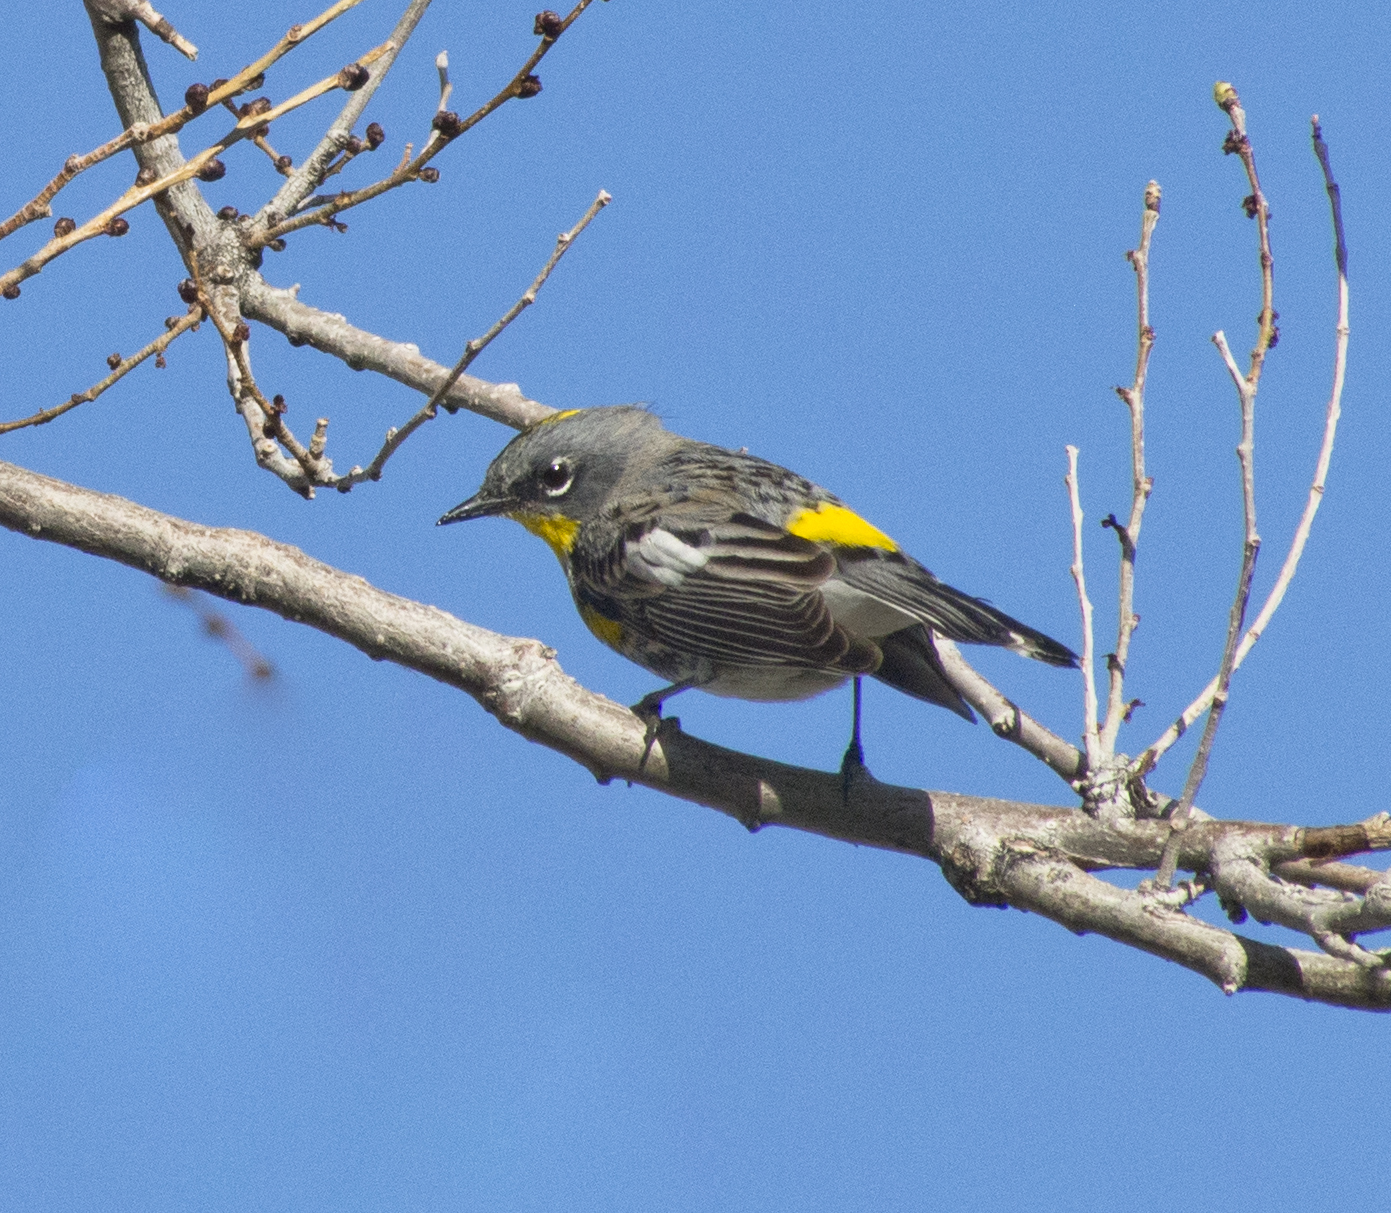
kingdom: Animalia
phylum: Chordata
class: Aves
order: Passeriformes
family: Parulidae
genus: Setophaga
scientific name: Setophaga auduboni
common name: Audubon's warbler
